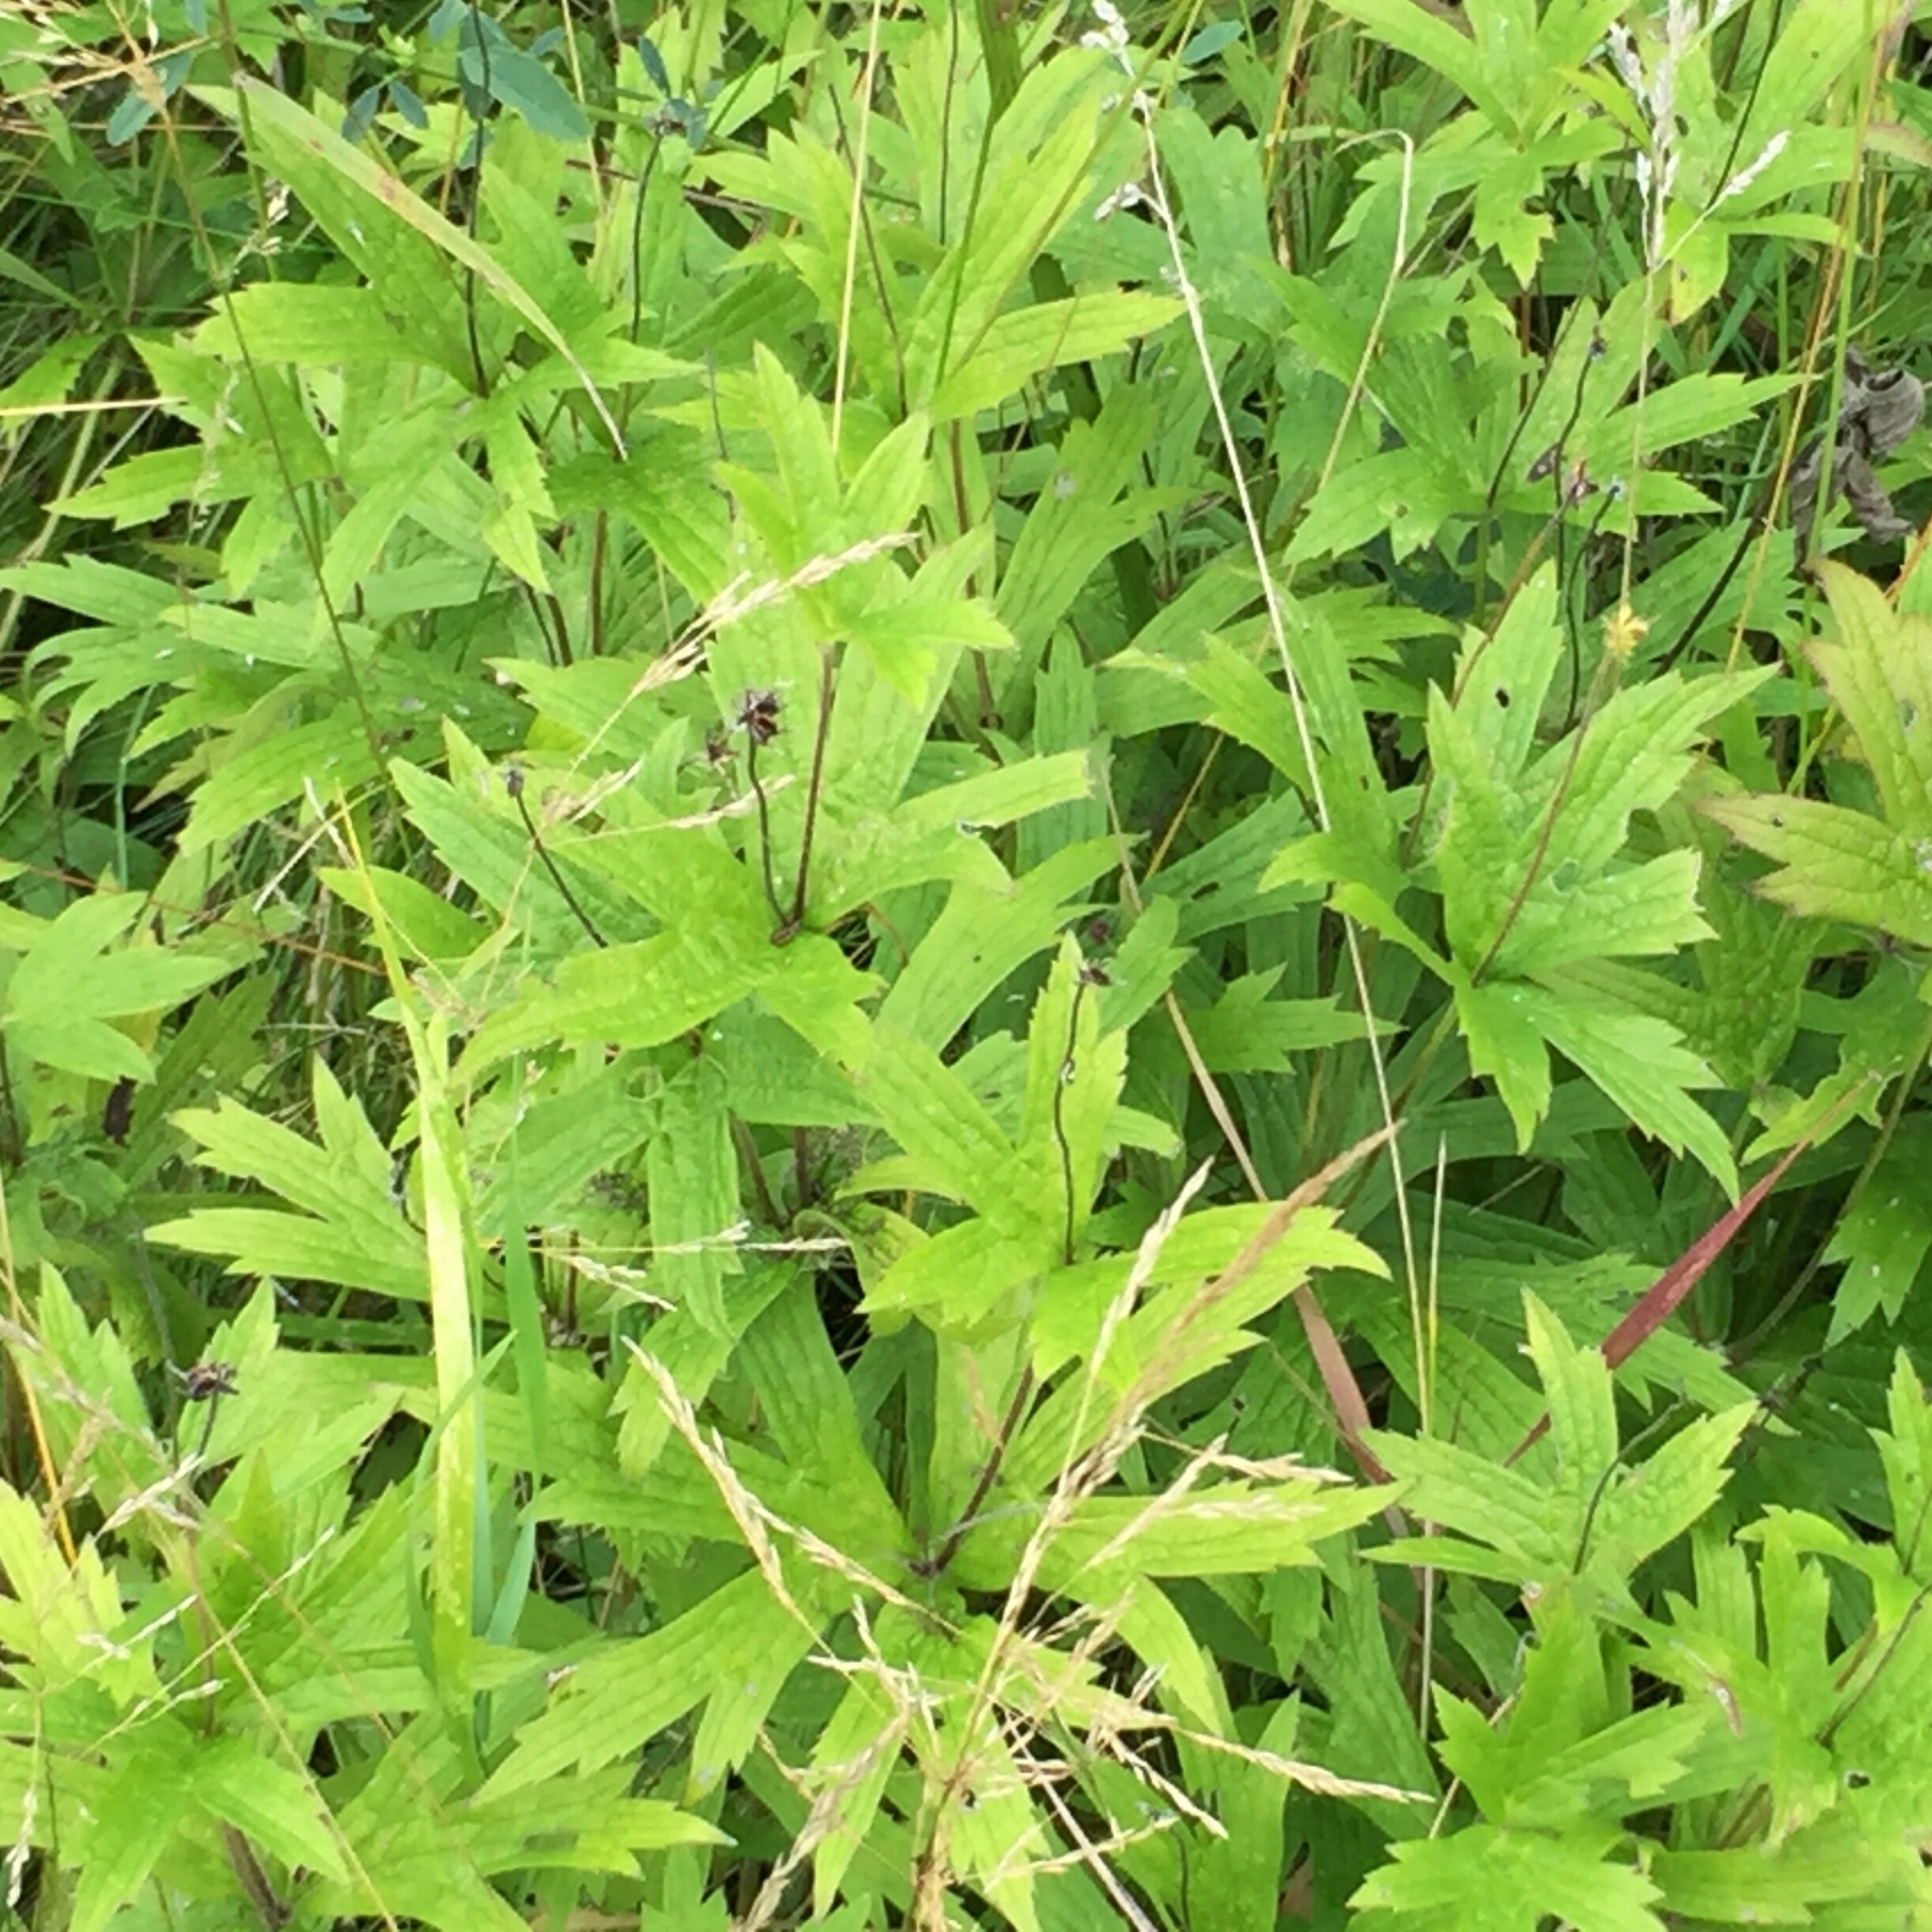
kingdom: Plantae
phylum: Tracheophyta
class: Magnoliopsida
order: Ranunculales
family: Ranunculaceae
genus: Anemonastrum
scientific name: Anemonastrum canadense
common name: Canada anemone
